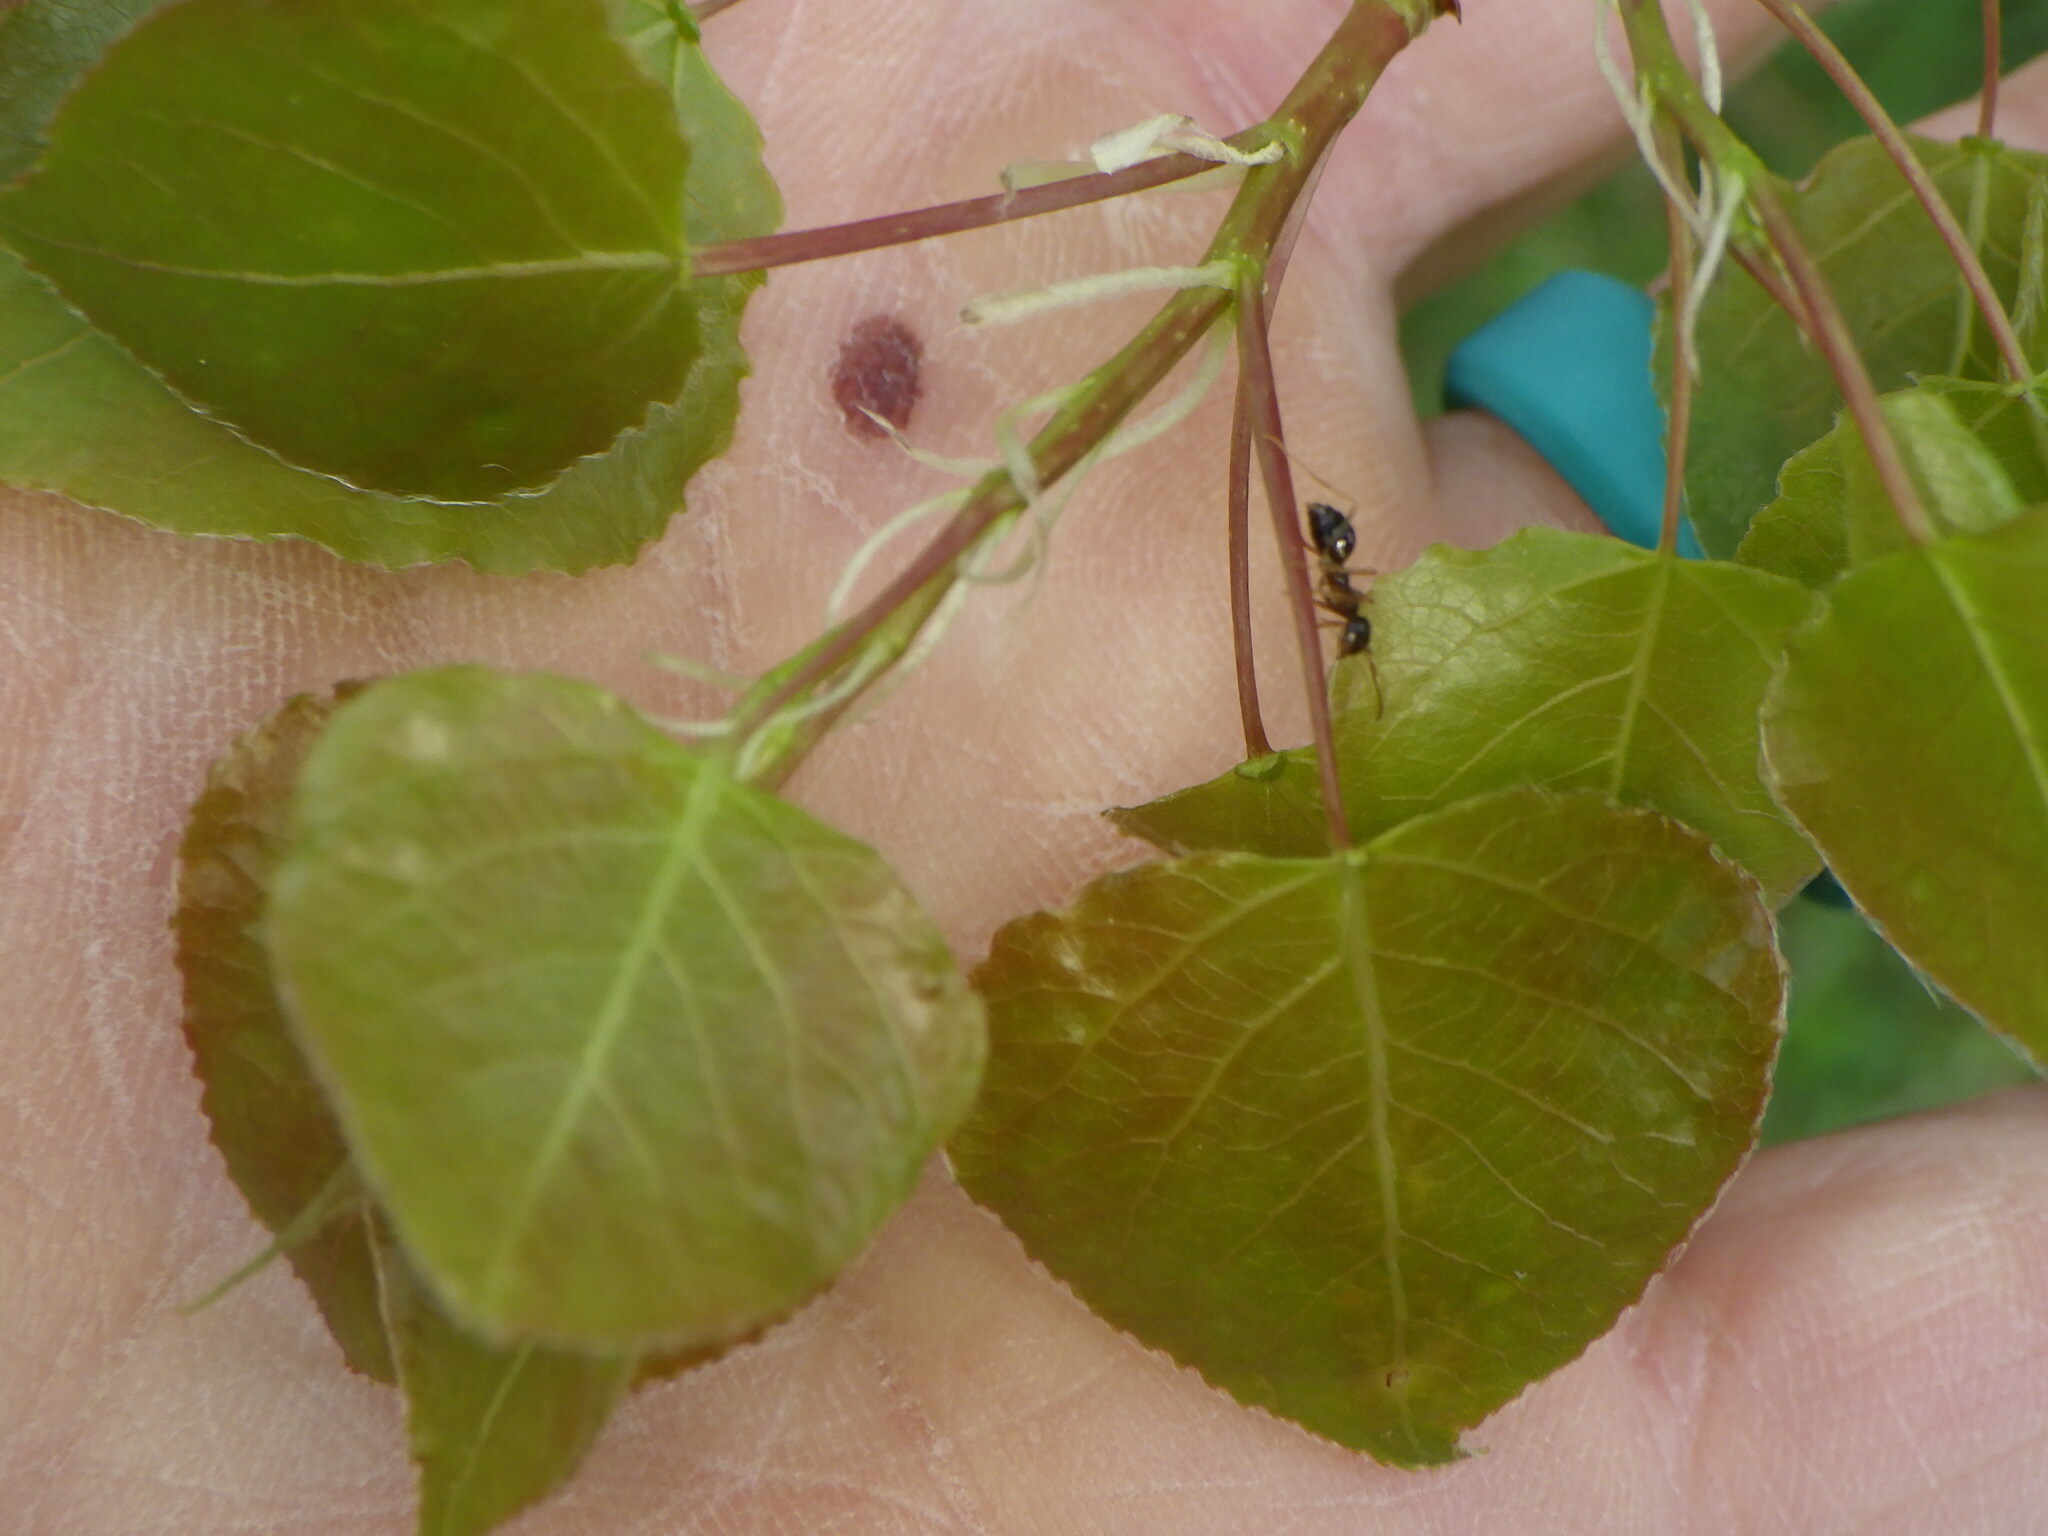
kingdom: Plantae
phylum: Tracheophyta
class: Magnoliopsida
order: Malpighiales
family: Salicaceae
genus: Populus
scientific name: Populus tremuloides
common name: Quaking aspen
